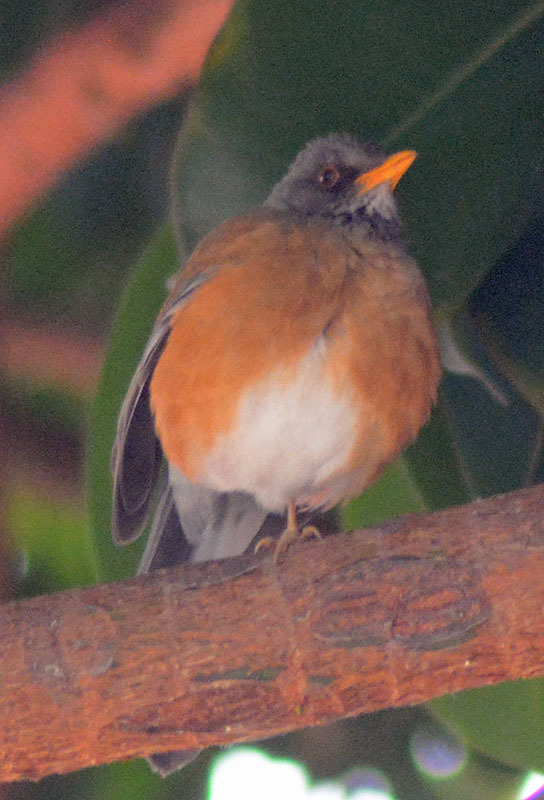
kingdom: Animalia
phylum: Chordata
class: Aves
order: Passeriformes
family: Turdidae
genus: Turdus
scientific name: Turdus rufopalliatus
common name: Rufous-backed robin
